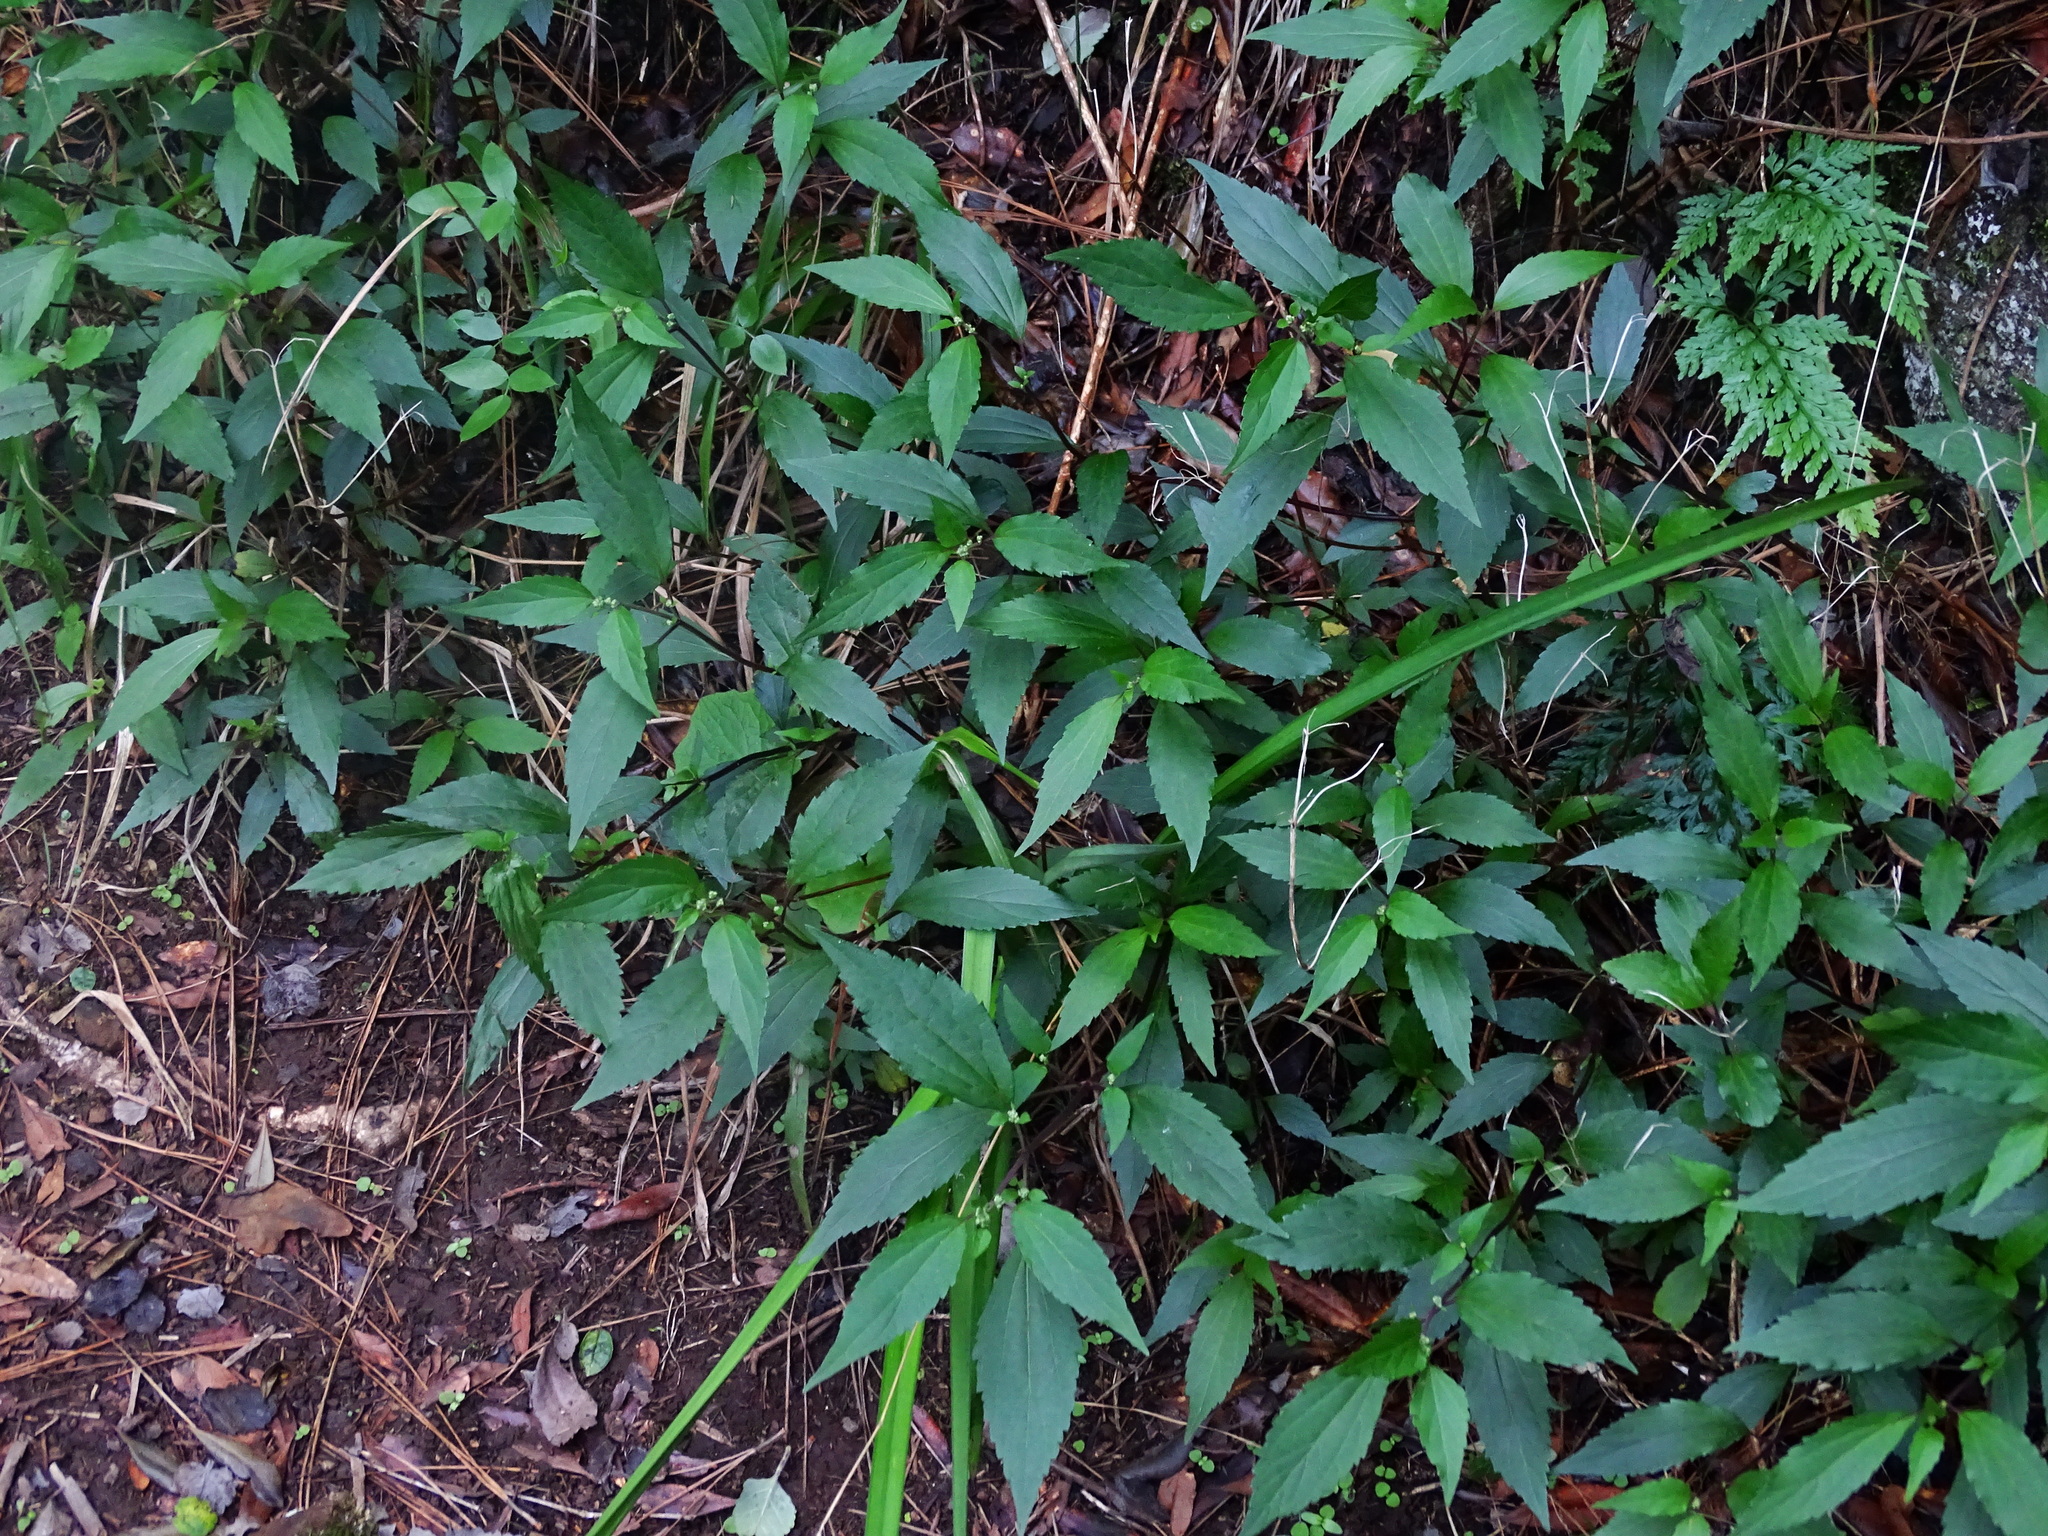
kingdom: Plantae
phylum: Tracheophyta
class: Magnoliopsida
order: Asterales
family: Asteraceae
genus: Ageratina
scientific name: Ageratina riparia
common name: Creeping croftonweed
